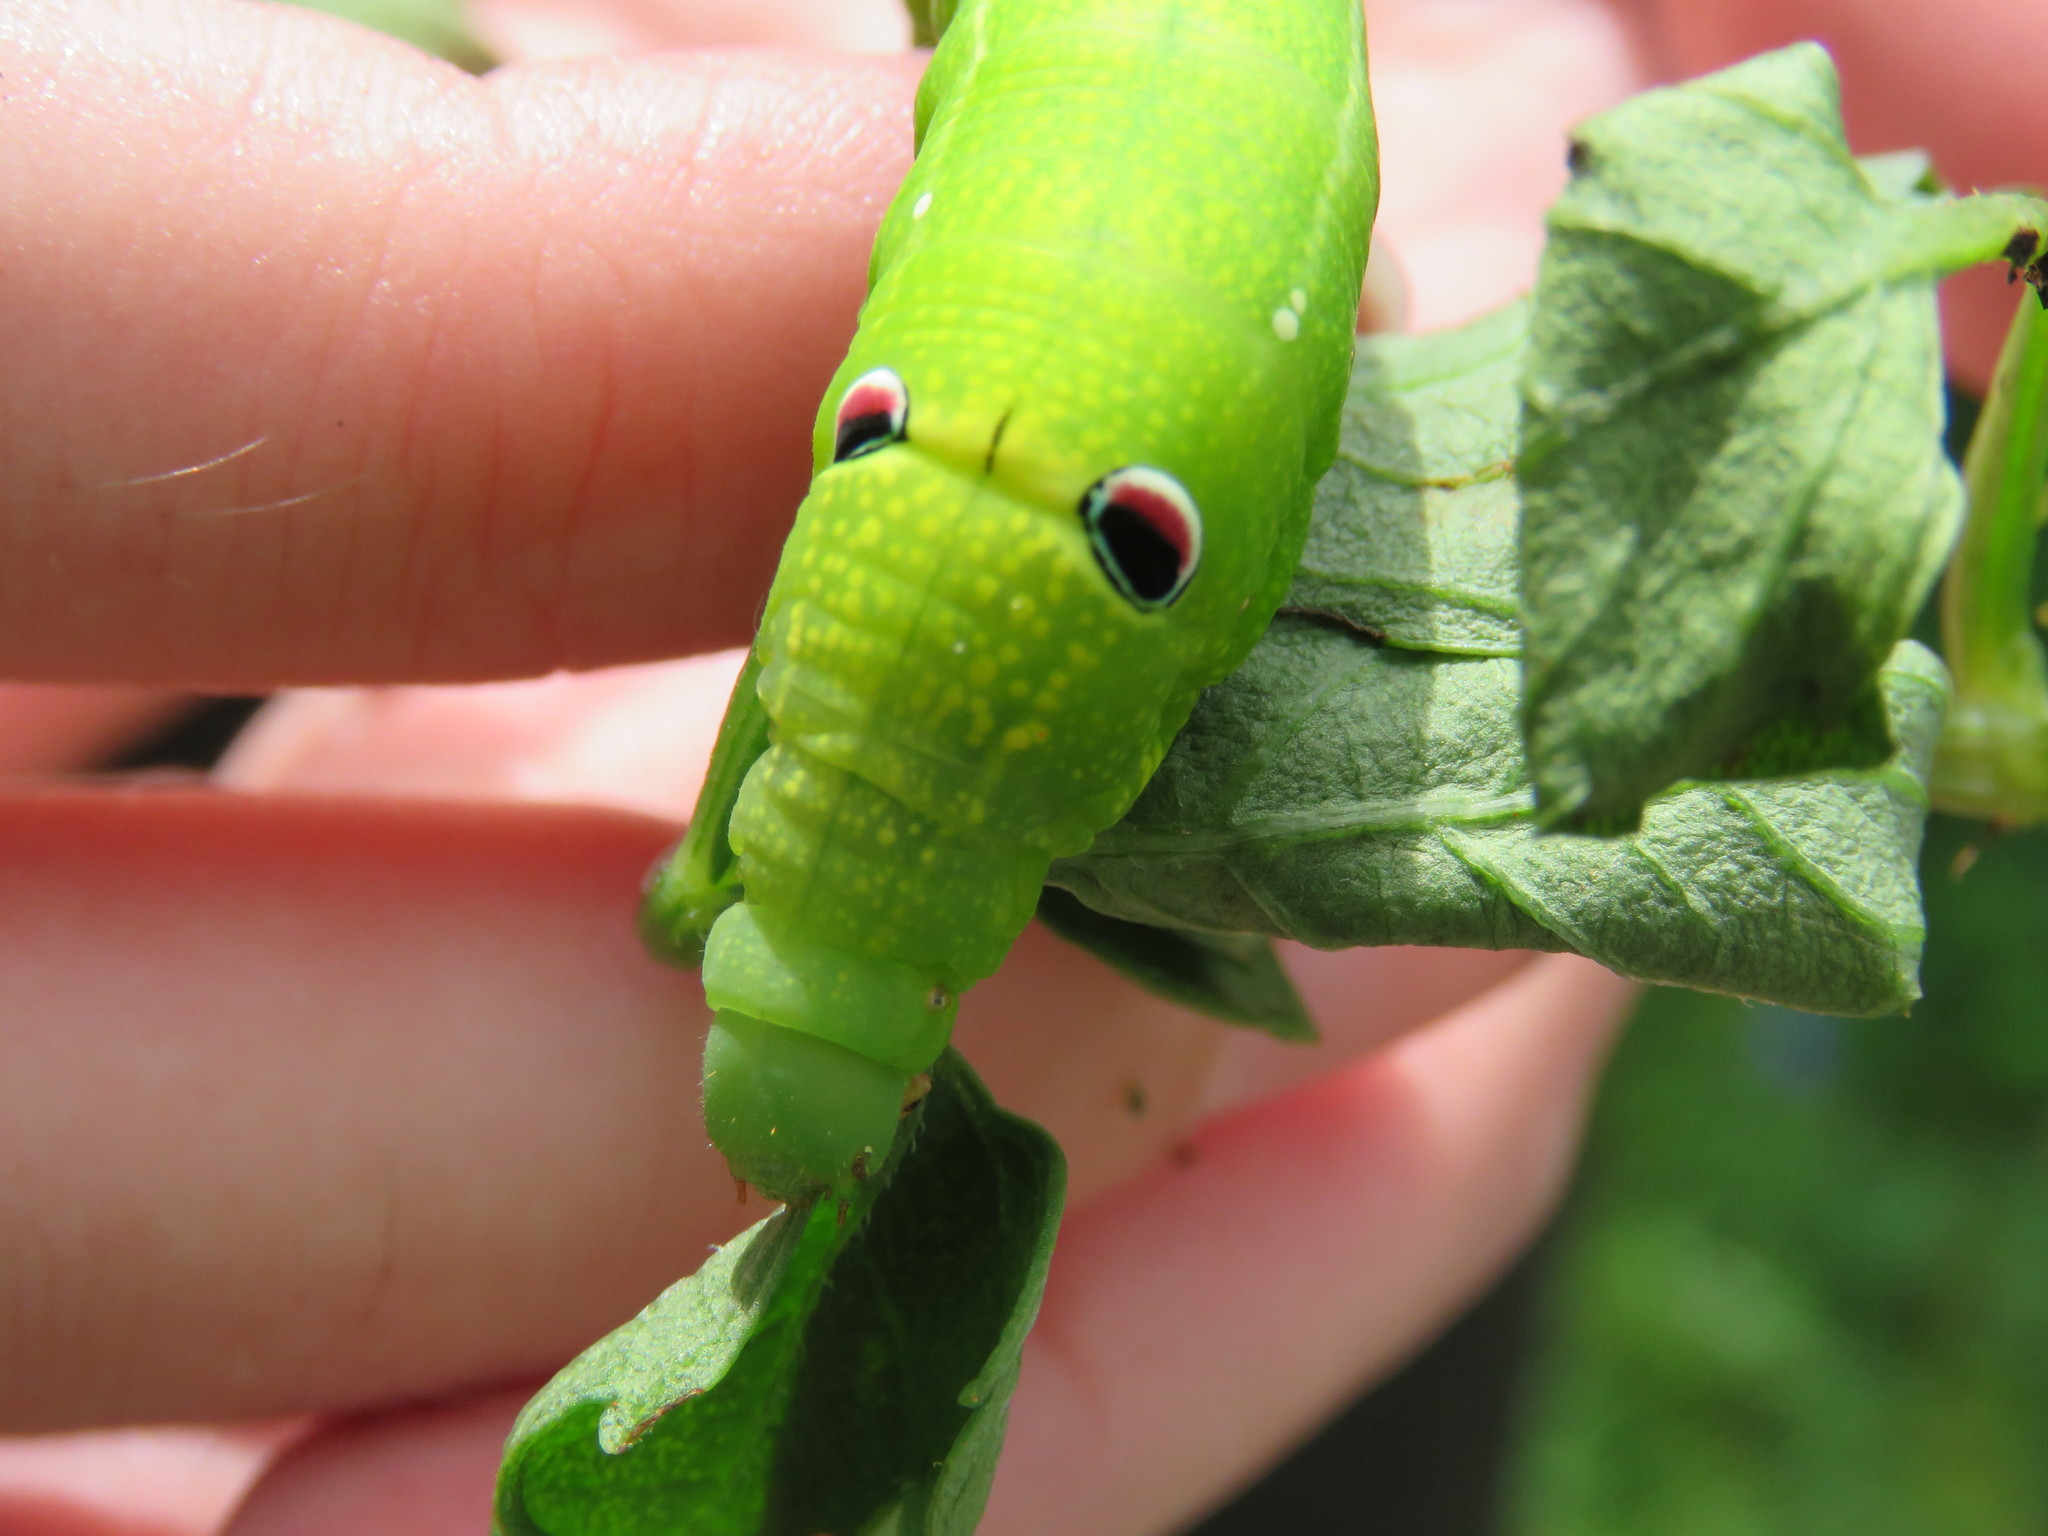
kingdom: Animalia
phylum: Arthropoda
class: Insecta
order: Lepidoptera
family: Sphingidae
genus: Theretra
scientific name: Theretra latreillii
